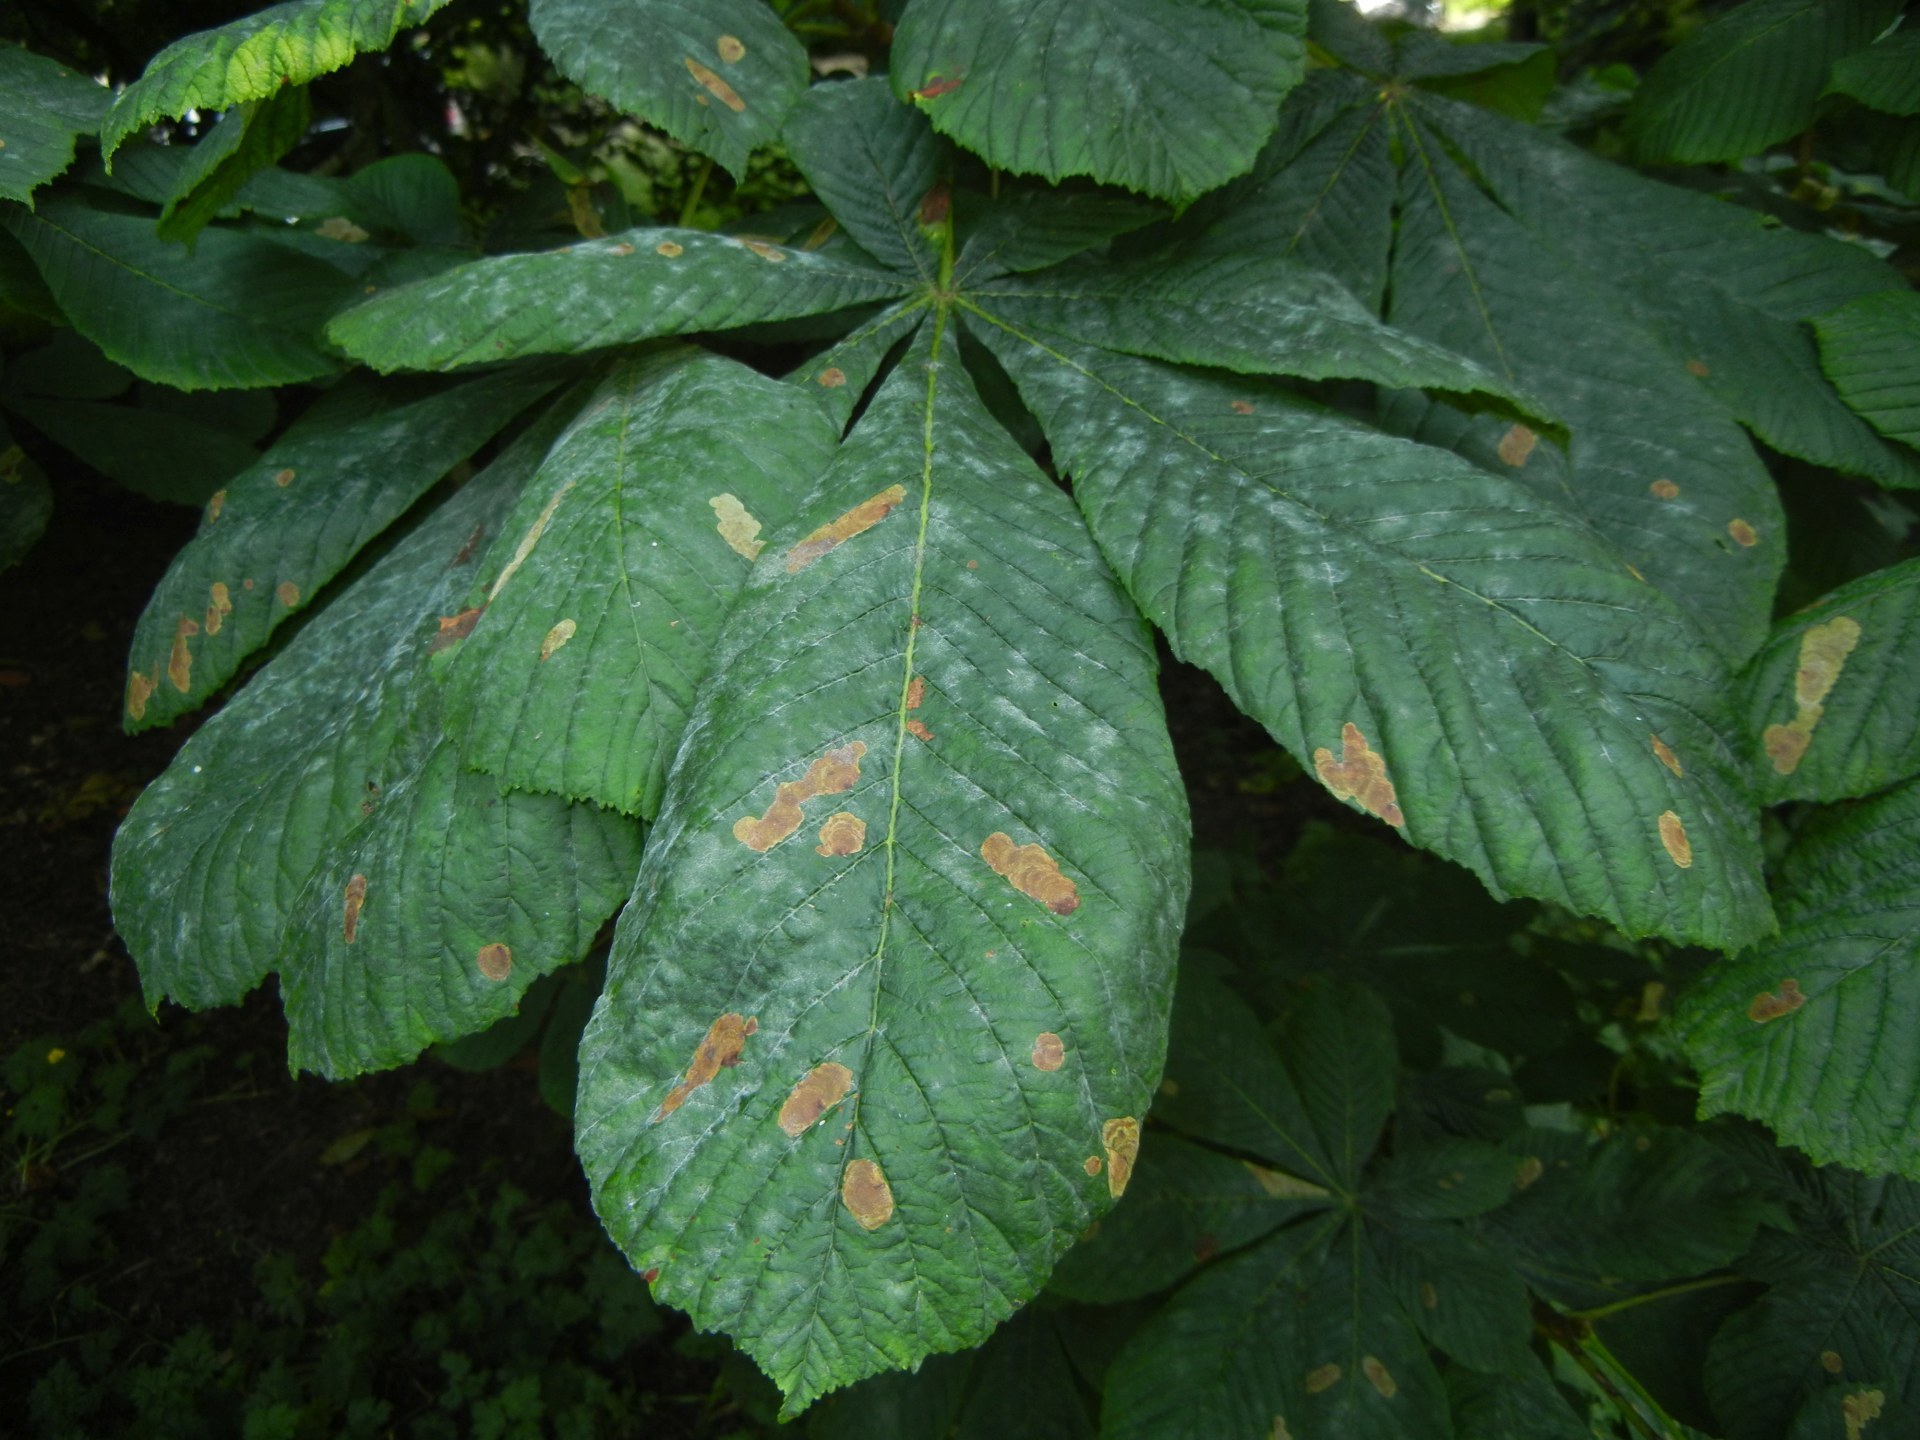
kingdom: Animalia
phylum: Arthropoda
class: Insecta
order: Lepidoptera
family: Gracillariidae
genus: Cameraria
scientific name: Cameraria ohridella
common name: Horse-chestnut leaf-miner
